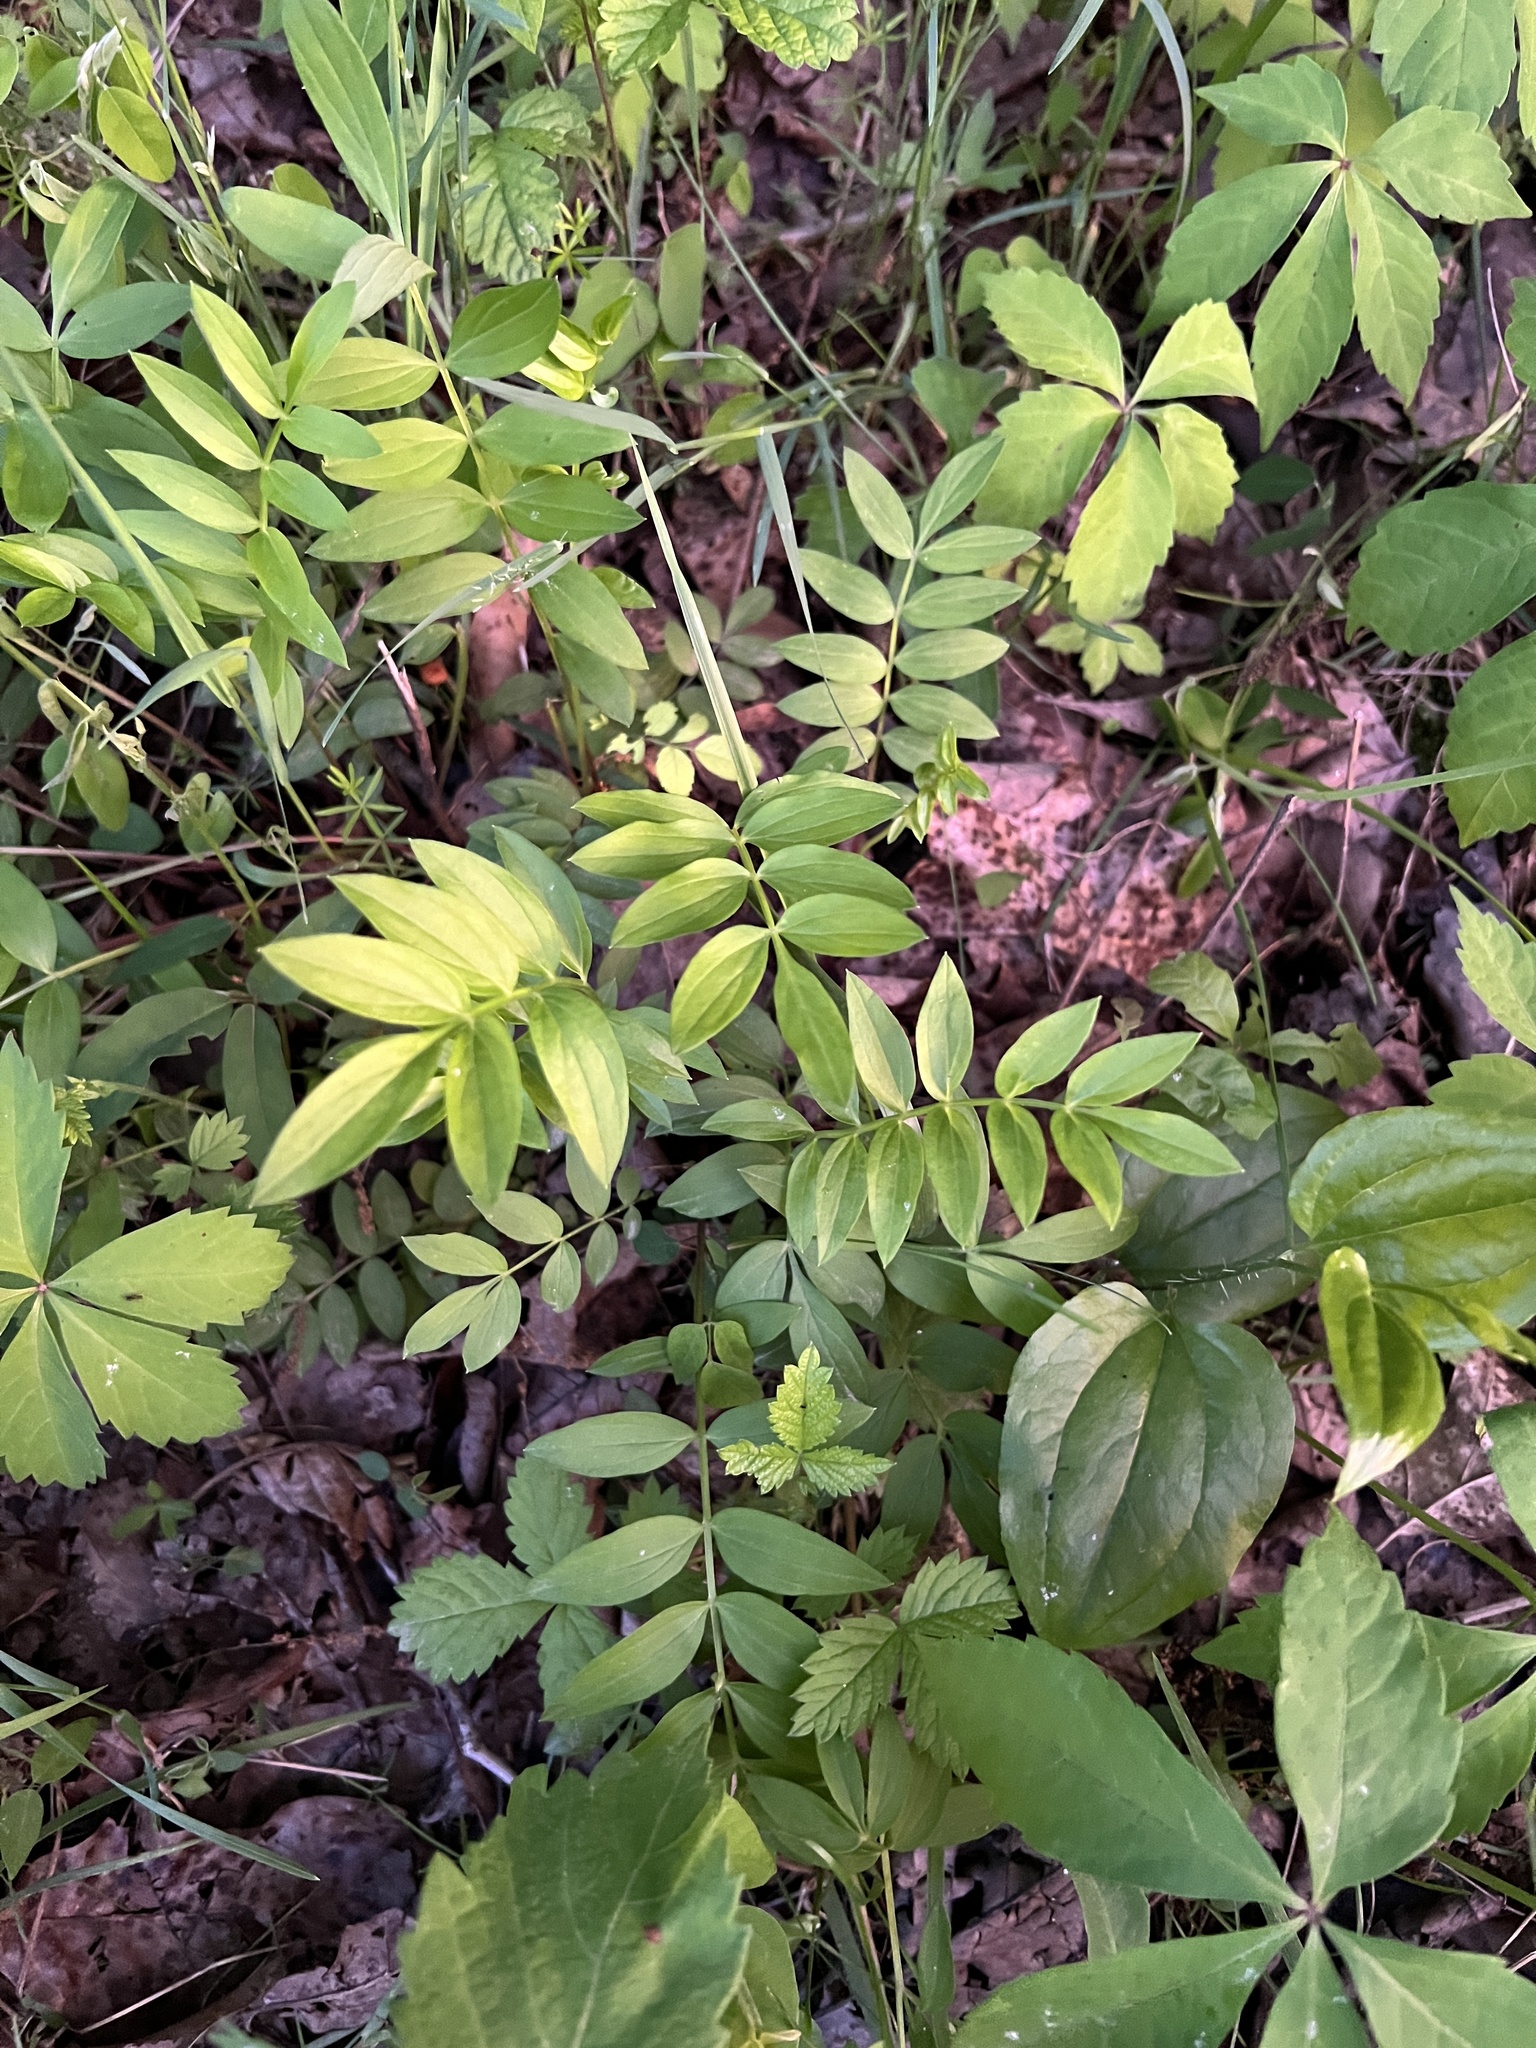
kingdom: Plantae
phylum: Tracheophyta
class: Magnoliopsida
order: Ericales
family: Polemoniaceae
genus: Polemonium
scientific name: Polemonium reptans
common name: Creeping jacob's-ladder
